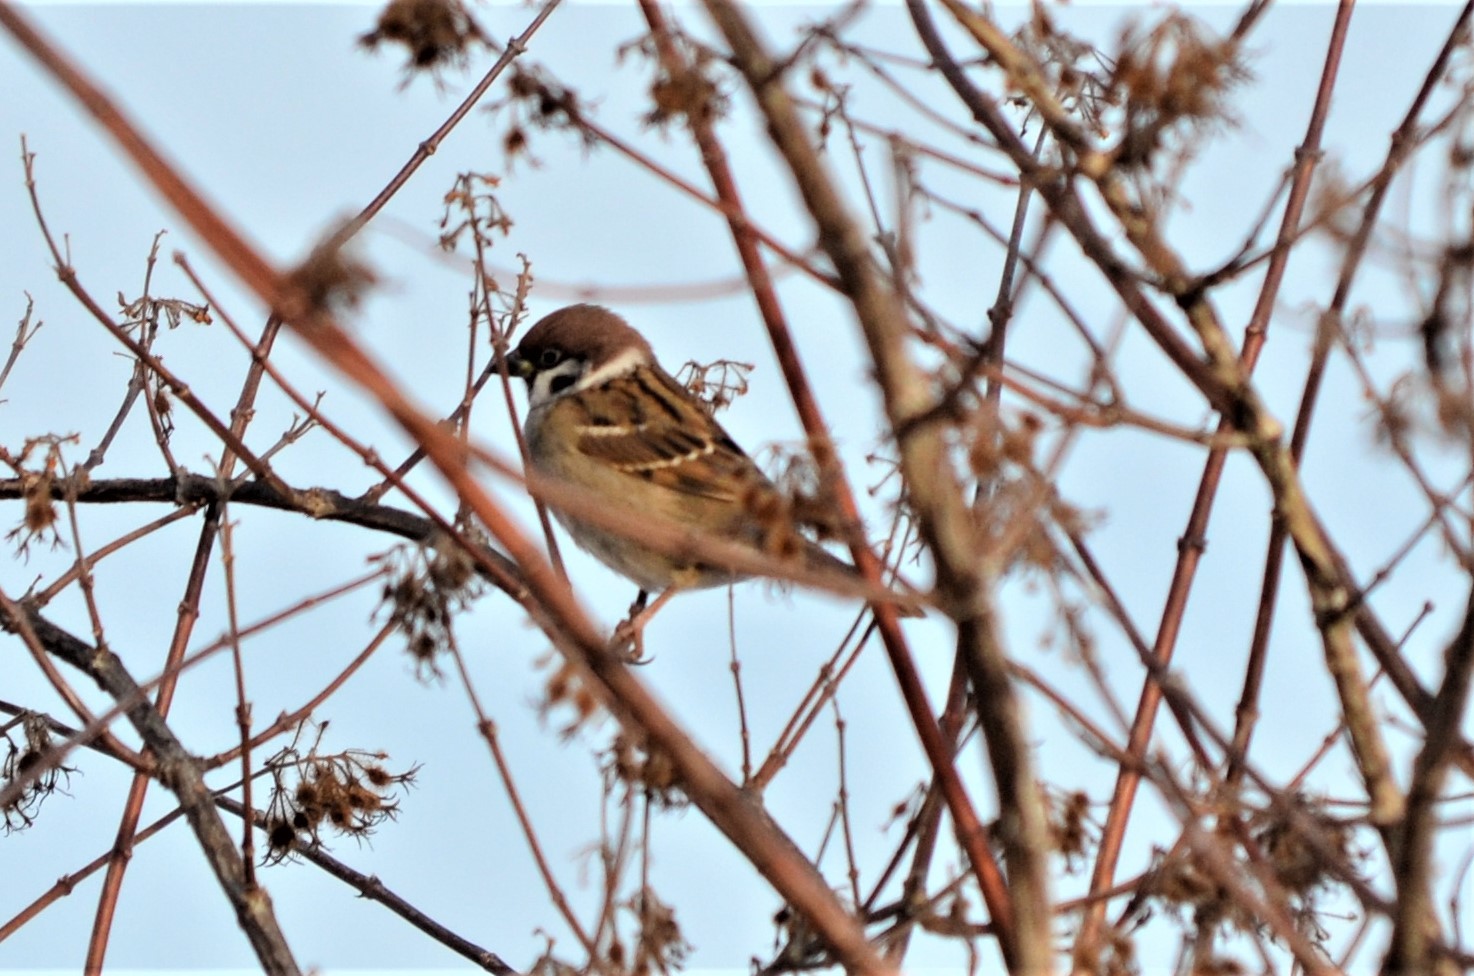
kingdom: Animalia
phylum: Chordata
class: Aves
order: Passeriformes
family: Passeridae
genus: Passer
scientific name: Passer montanus
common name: Eurasian tree sparrow
